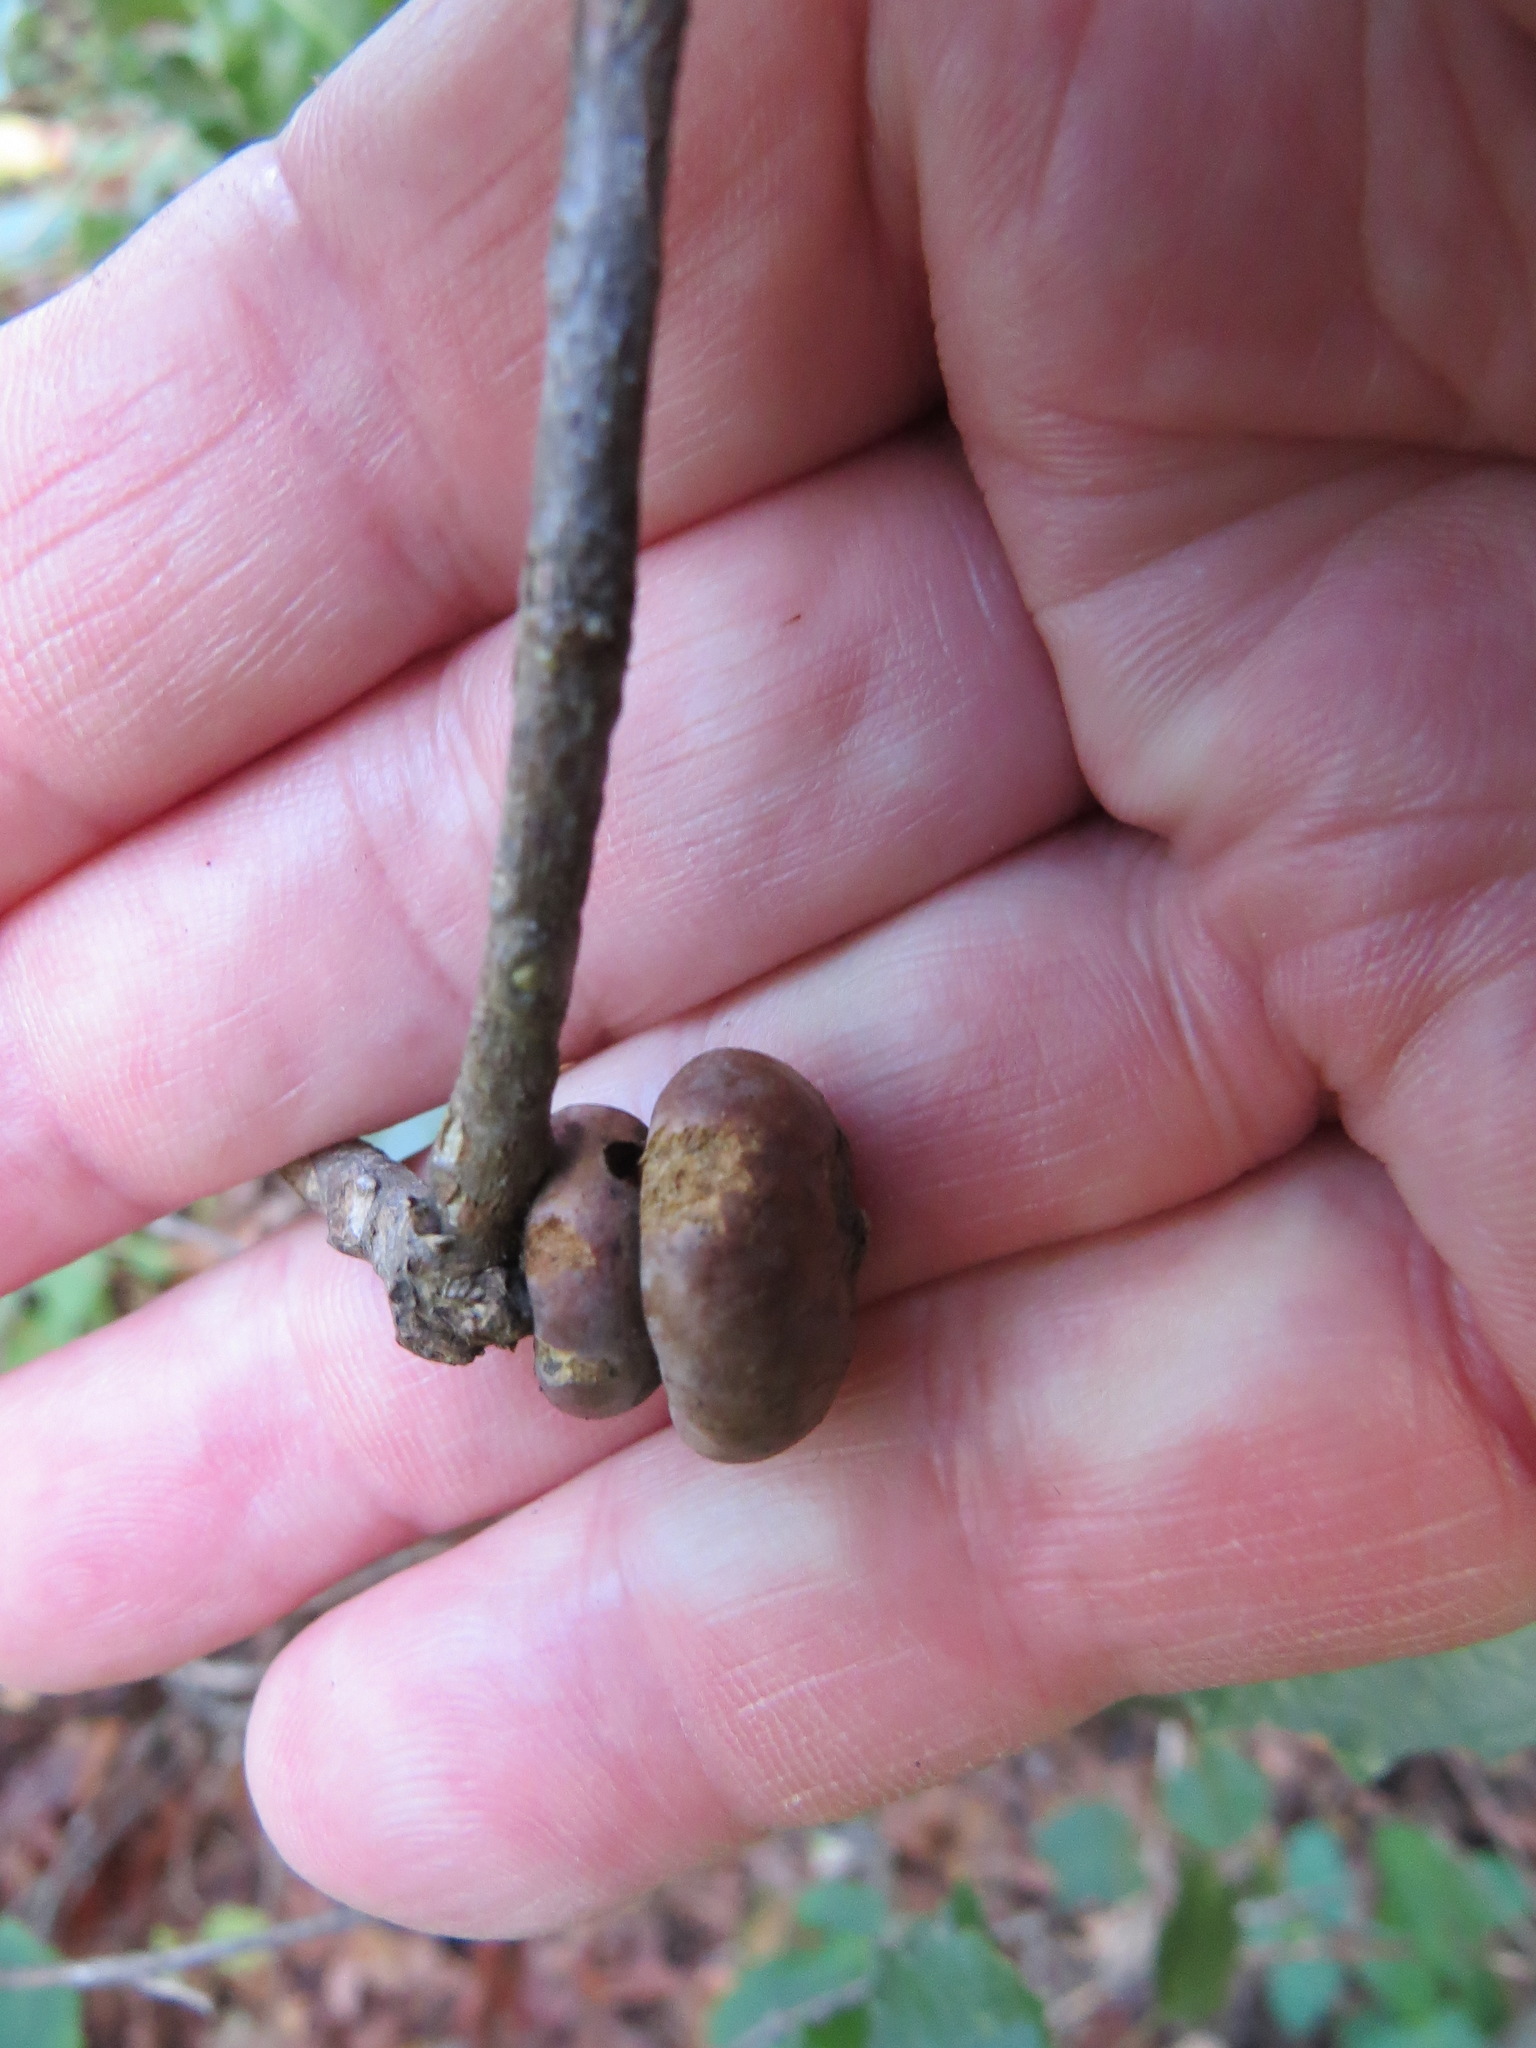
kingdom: Animalia
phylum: Arthropoda
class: Insecta
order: Hymenoptera
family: Cynipidae
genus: Heteroecus
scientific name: Heteroecus
